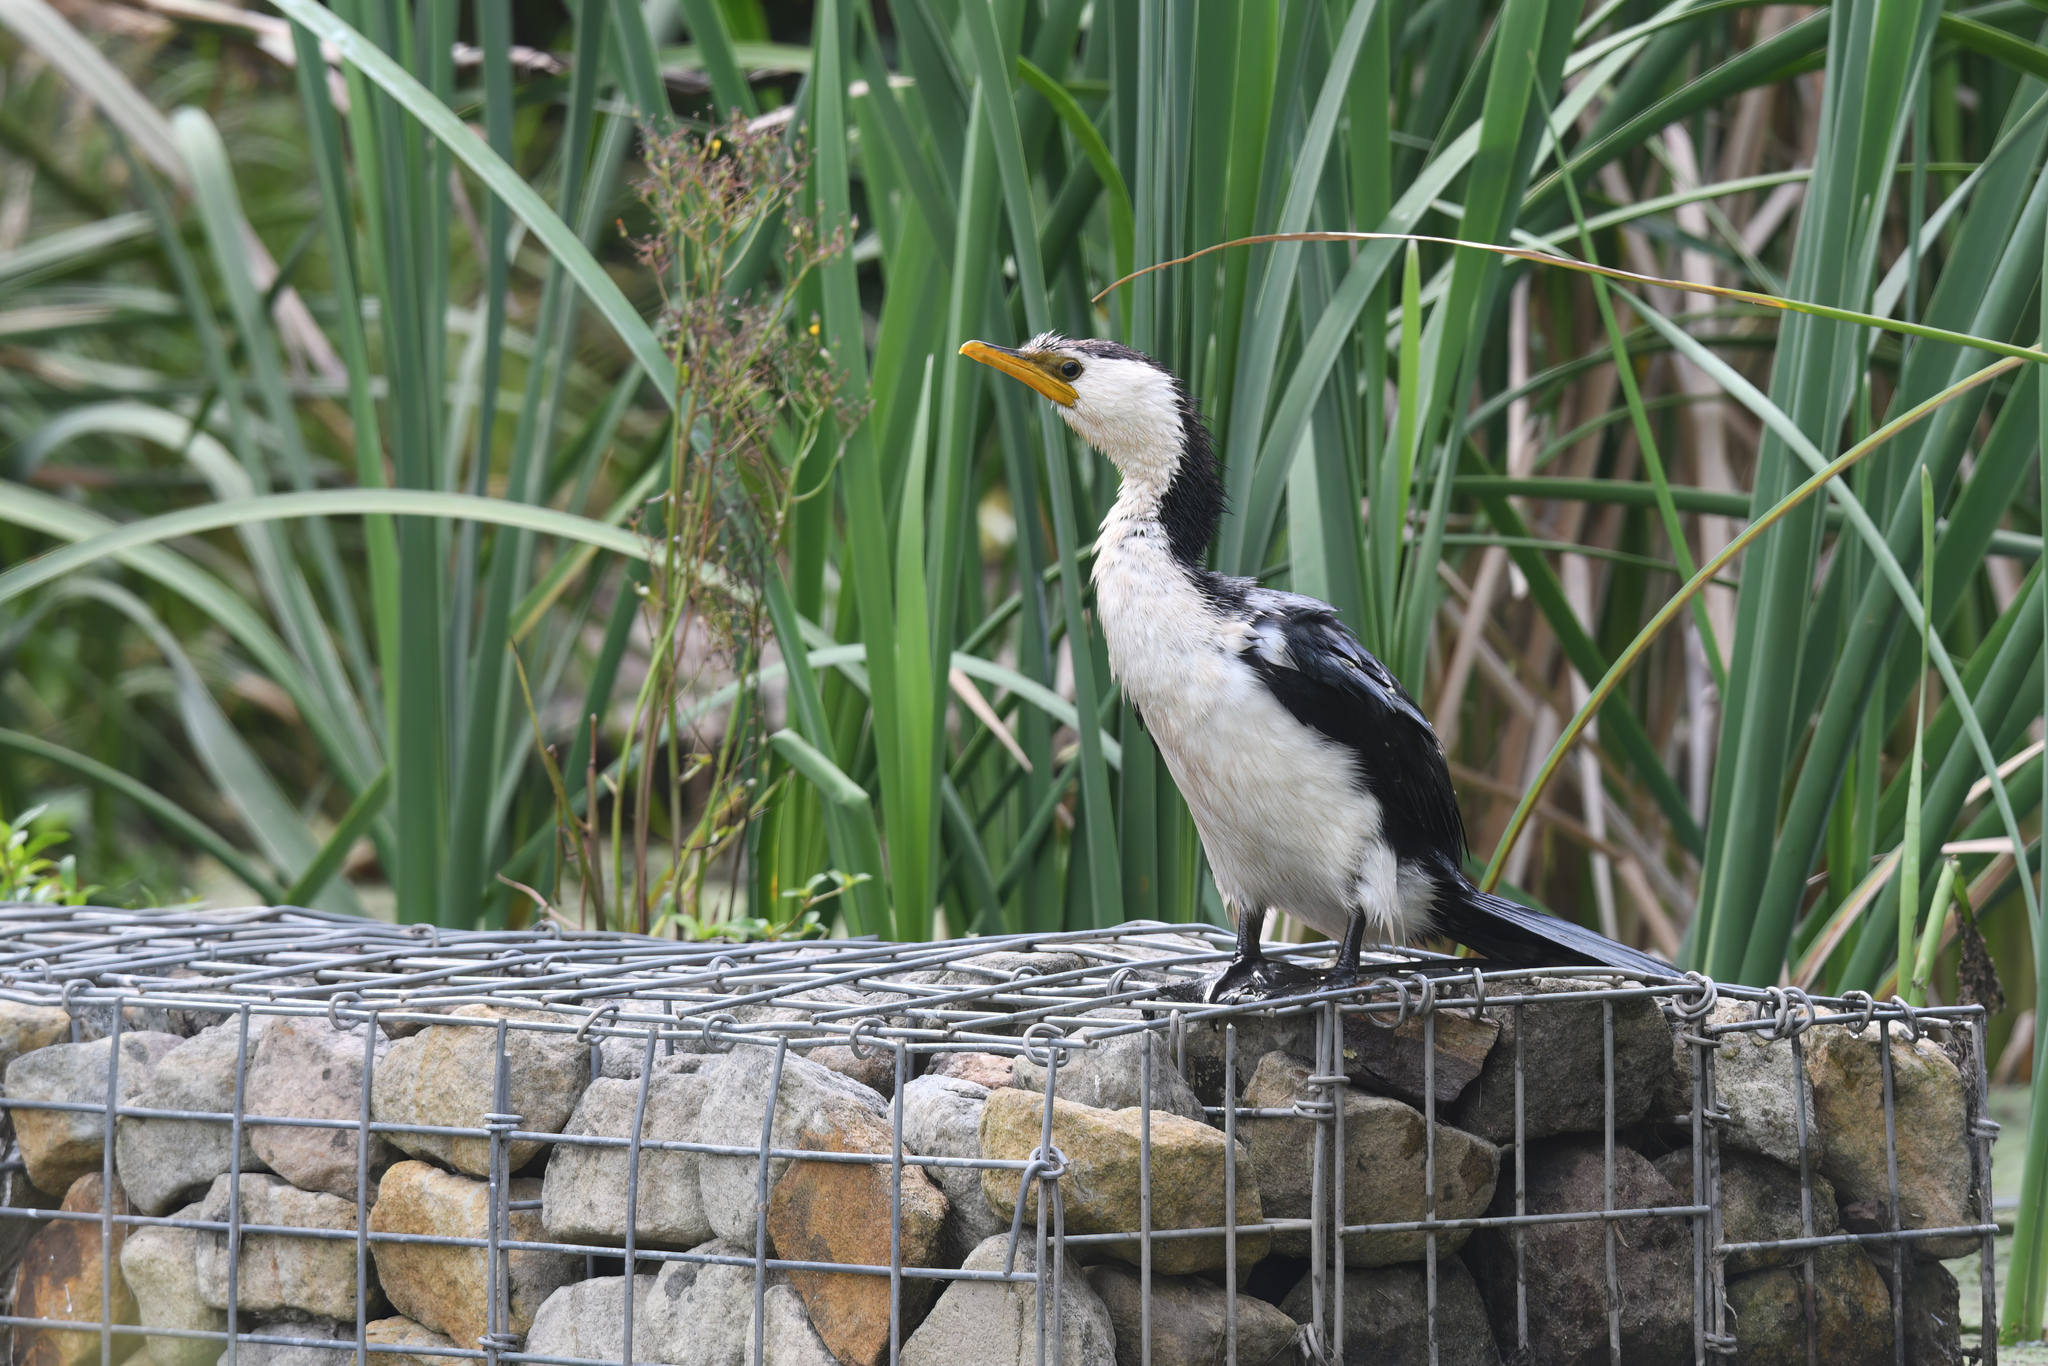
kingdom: Animalia
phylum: Chordata
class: Aves
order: Suliformes
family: Phalacrocoracidae
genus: Microcarbo
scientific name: Microcarbo melanoleucos
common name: Little pied cormorant
